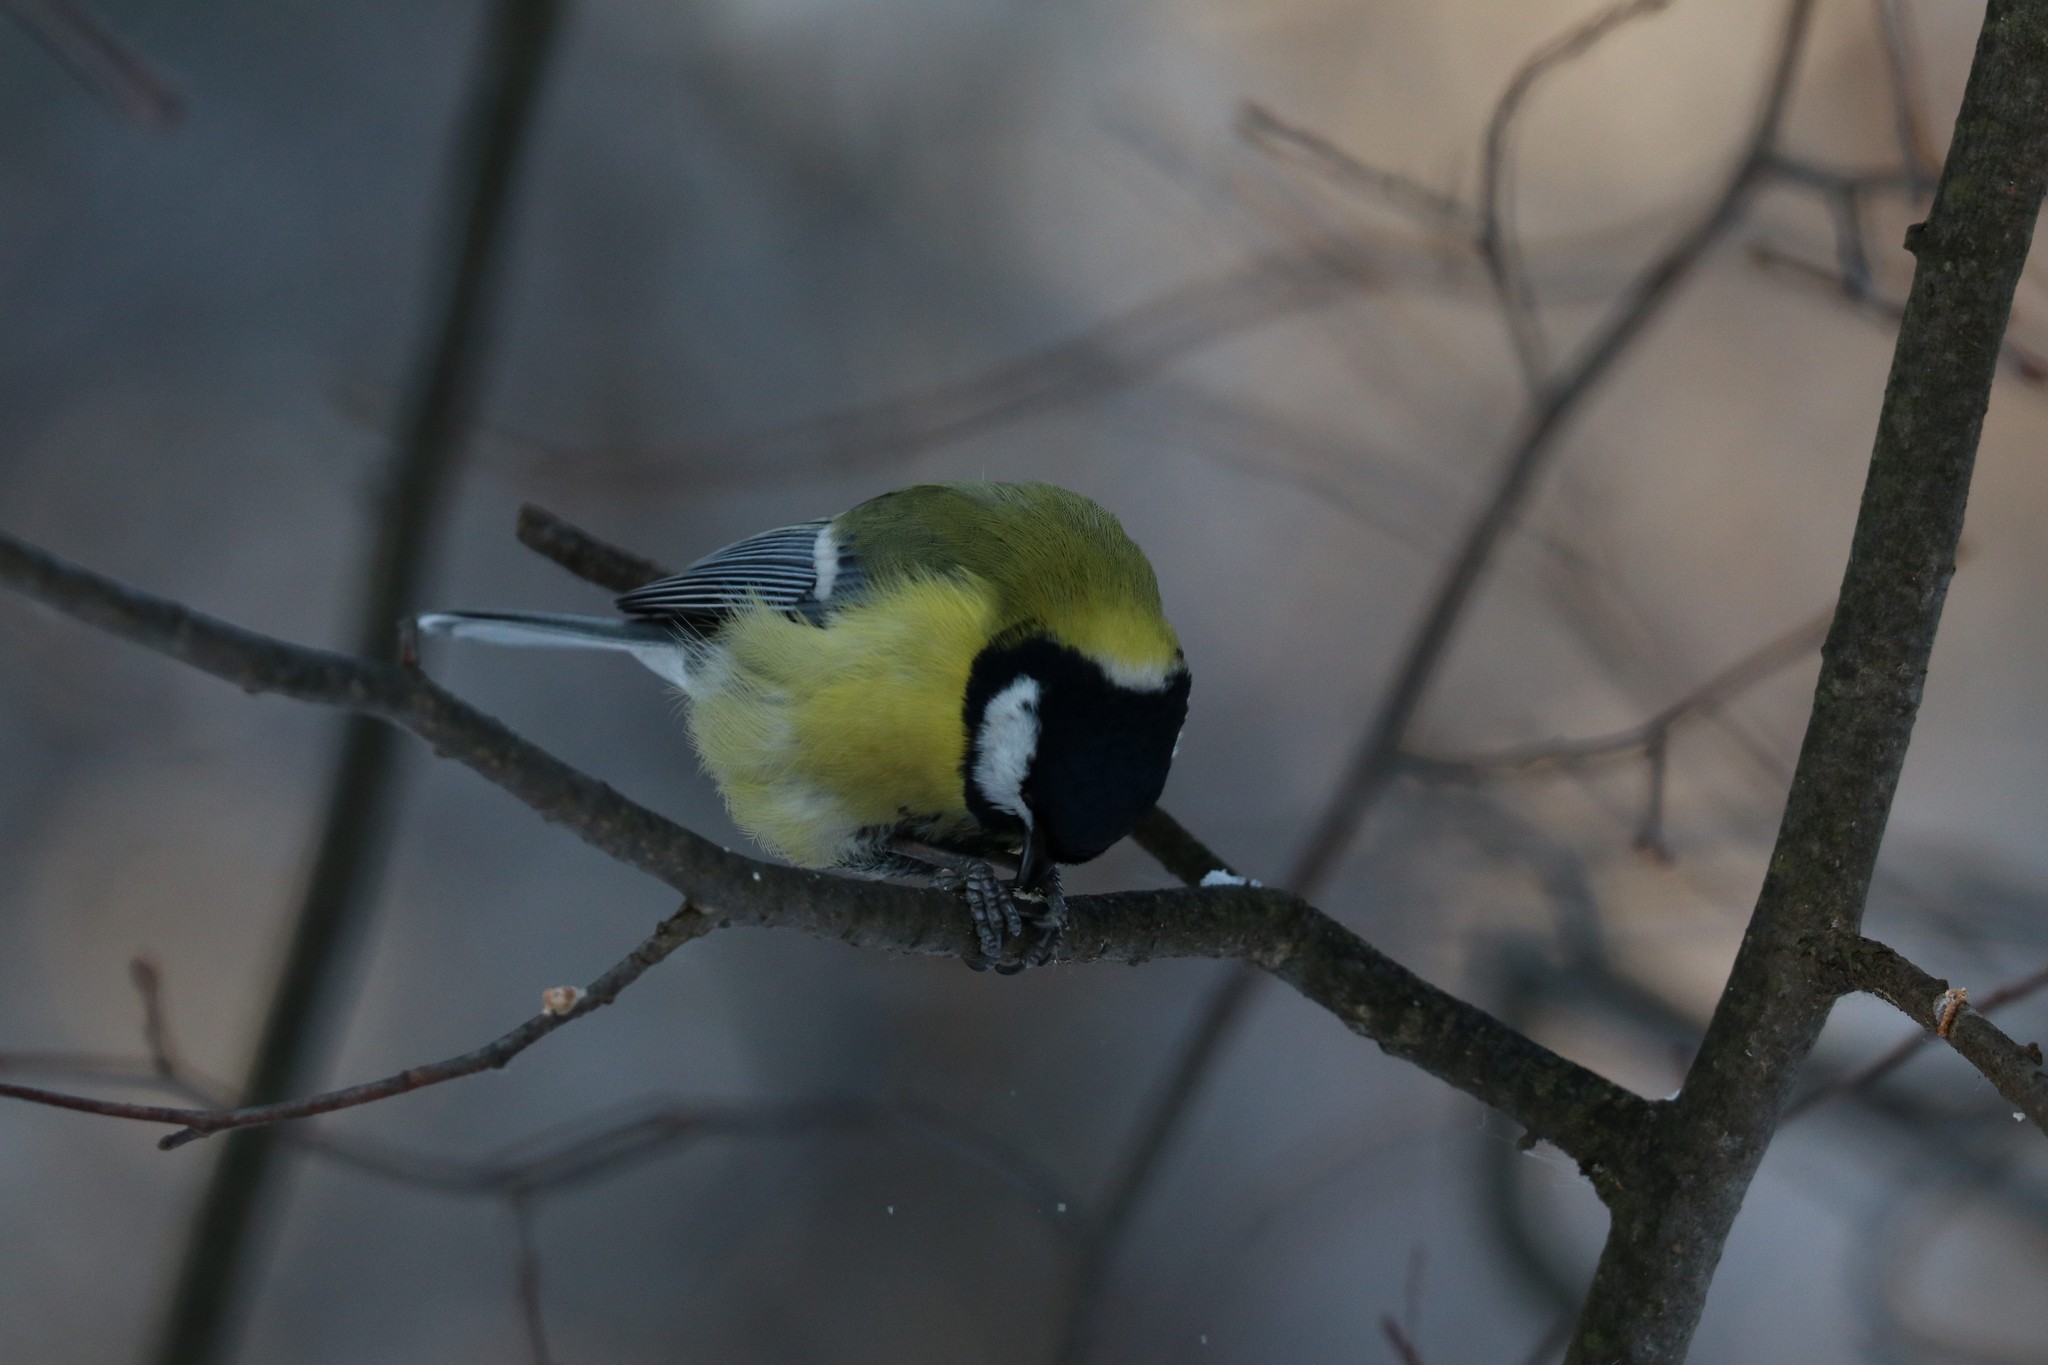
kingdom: Animalia
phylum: Chordata
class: Aves
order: Passeriformes
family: Paridae
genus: Parus
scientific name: Parus major
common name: Great tit
